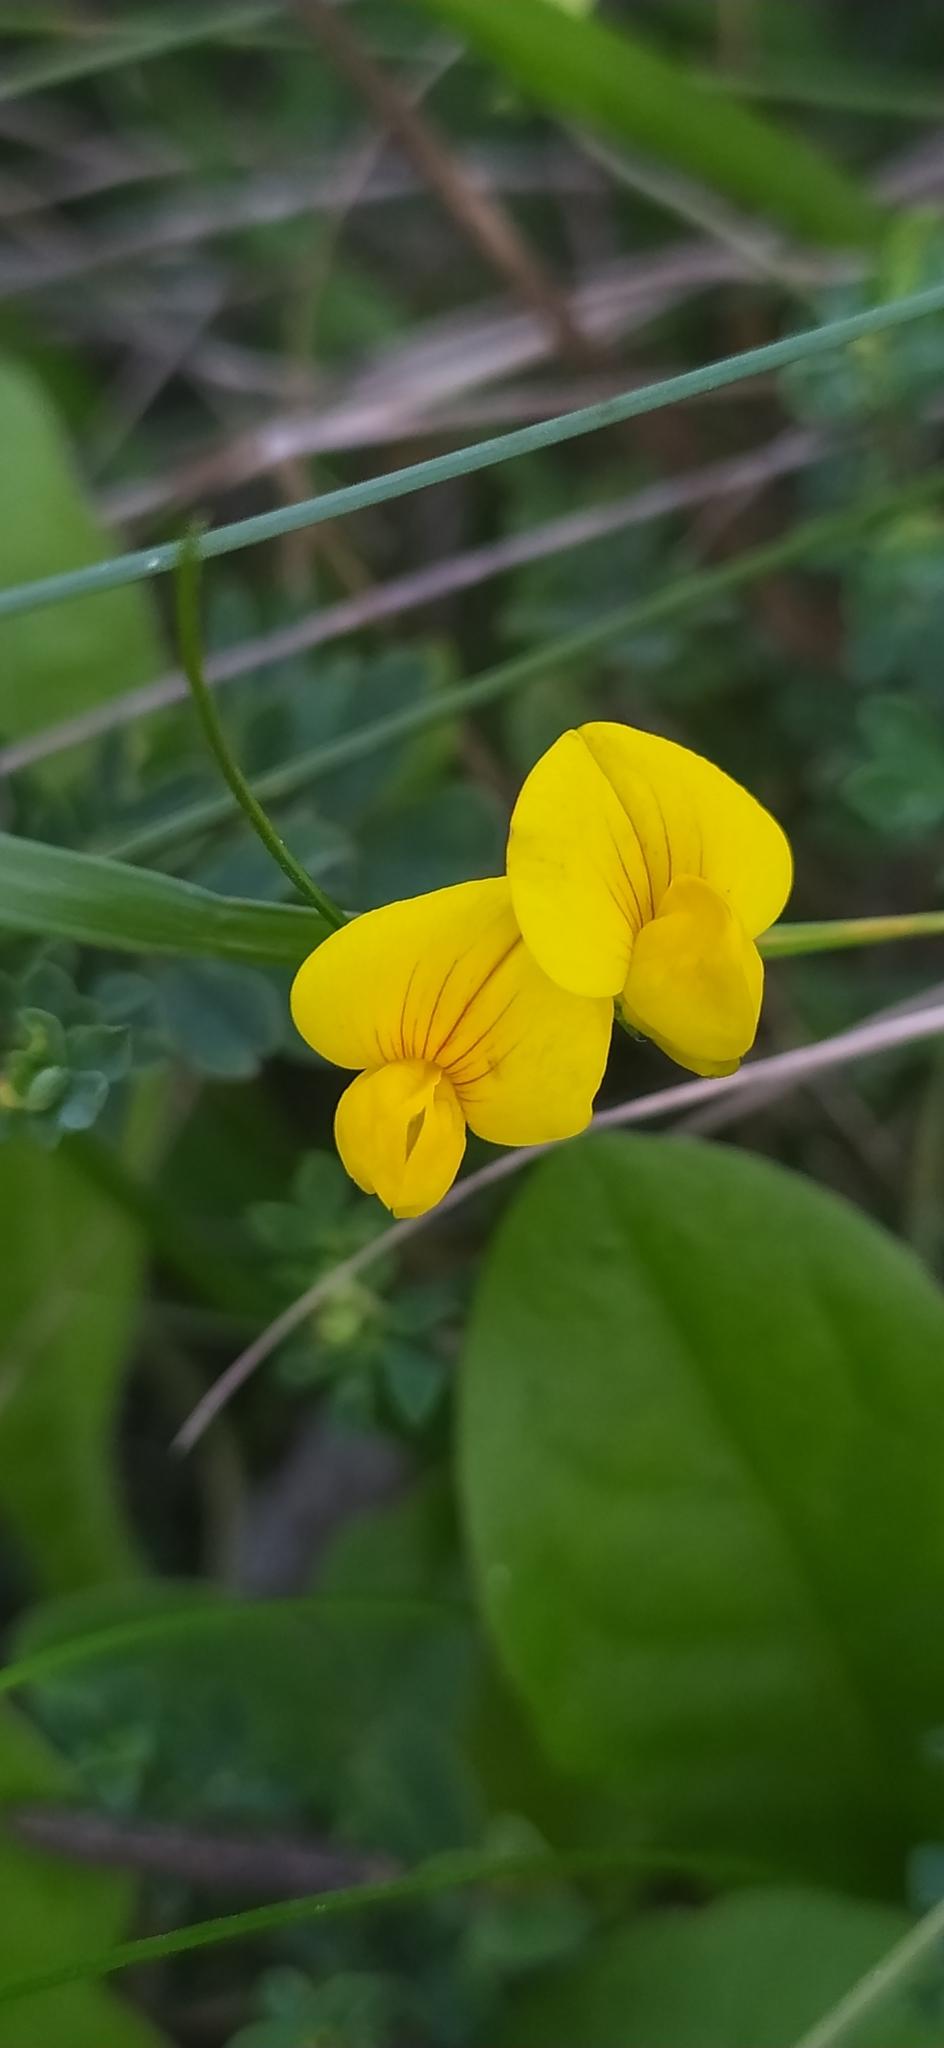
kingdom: Plantae
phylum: Tracheophyta
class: Magnoliopsida
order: Fabales
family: Fabaceae
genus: Lotus
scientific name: Lotus corniculatus
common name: Common bird's-foot-trefoil
